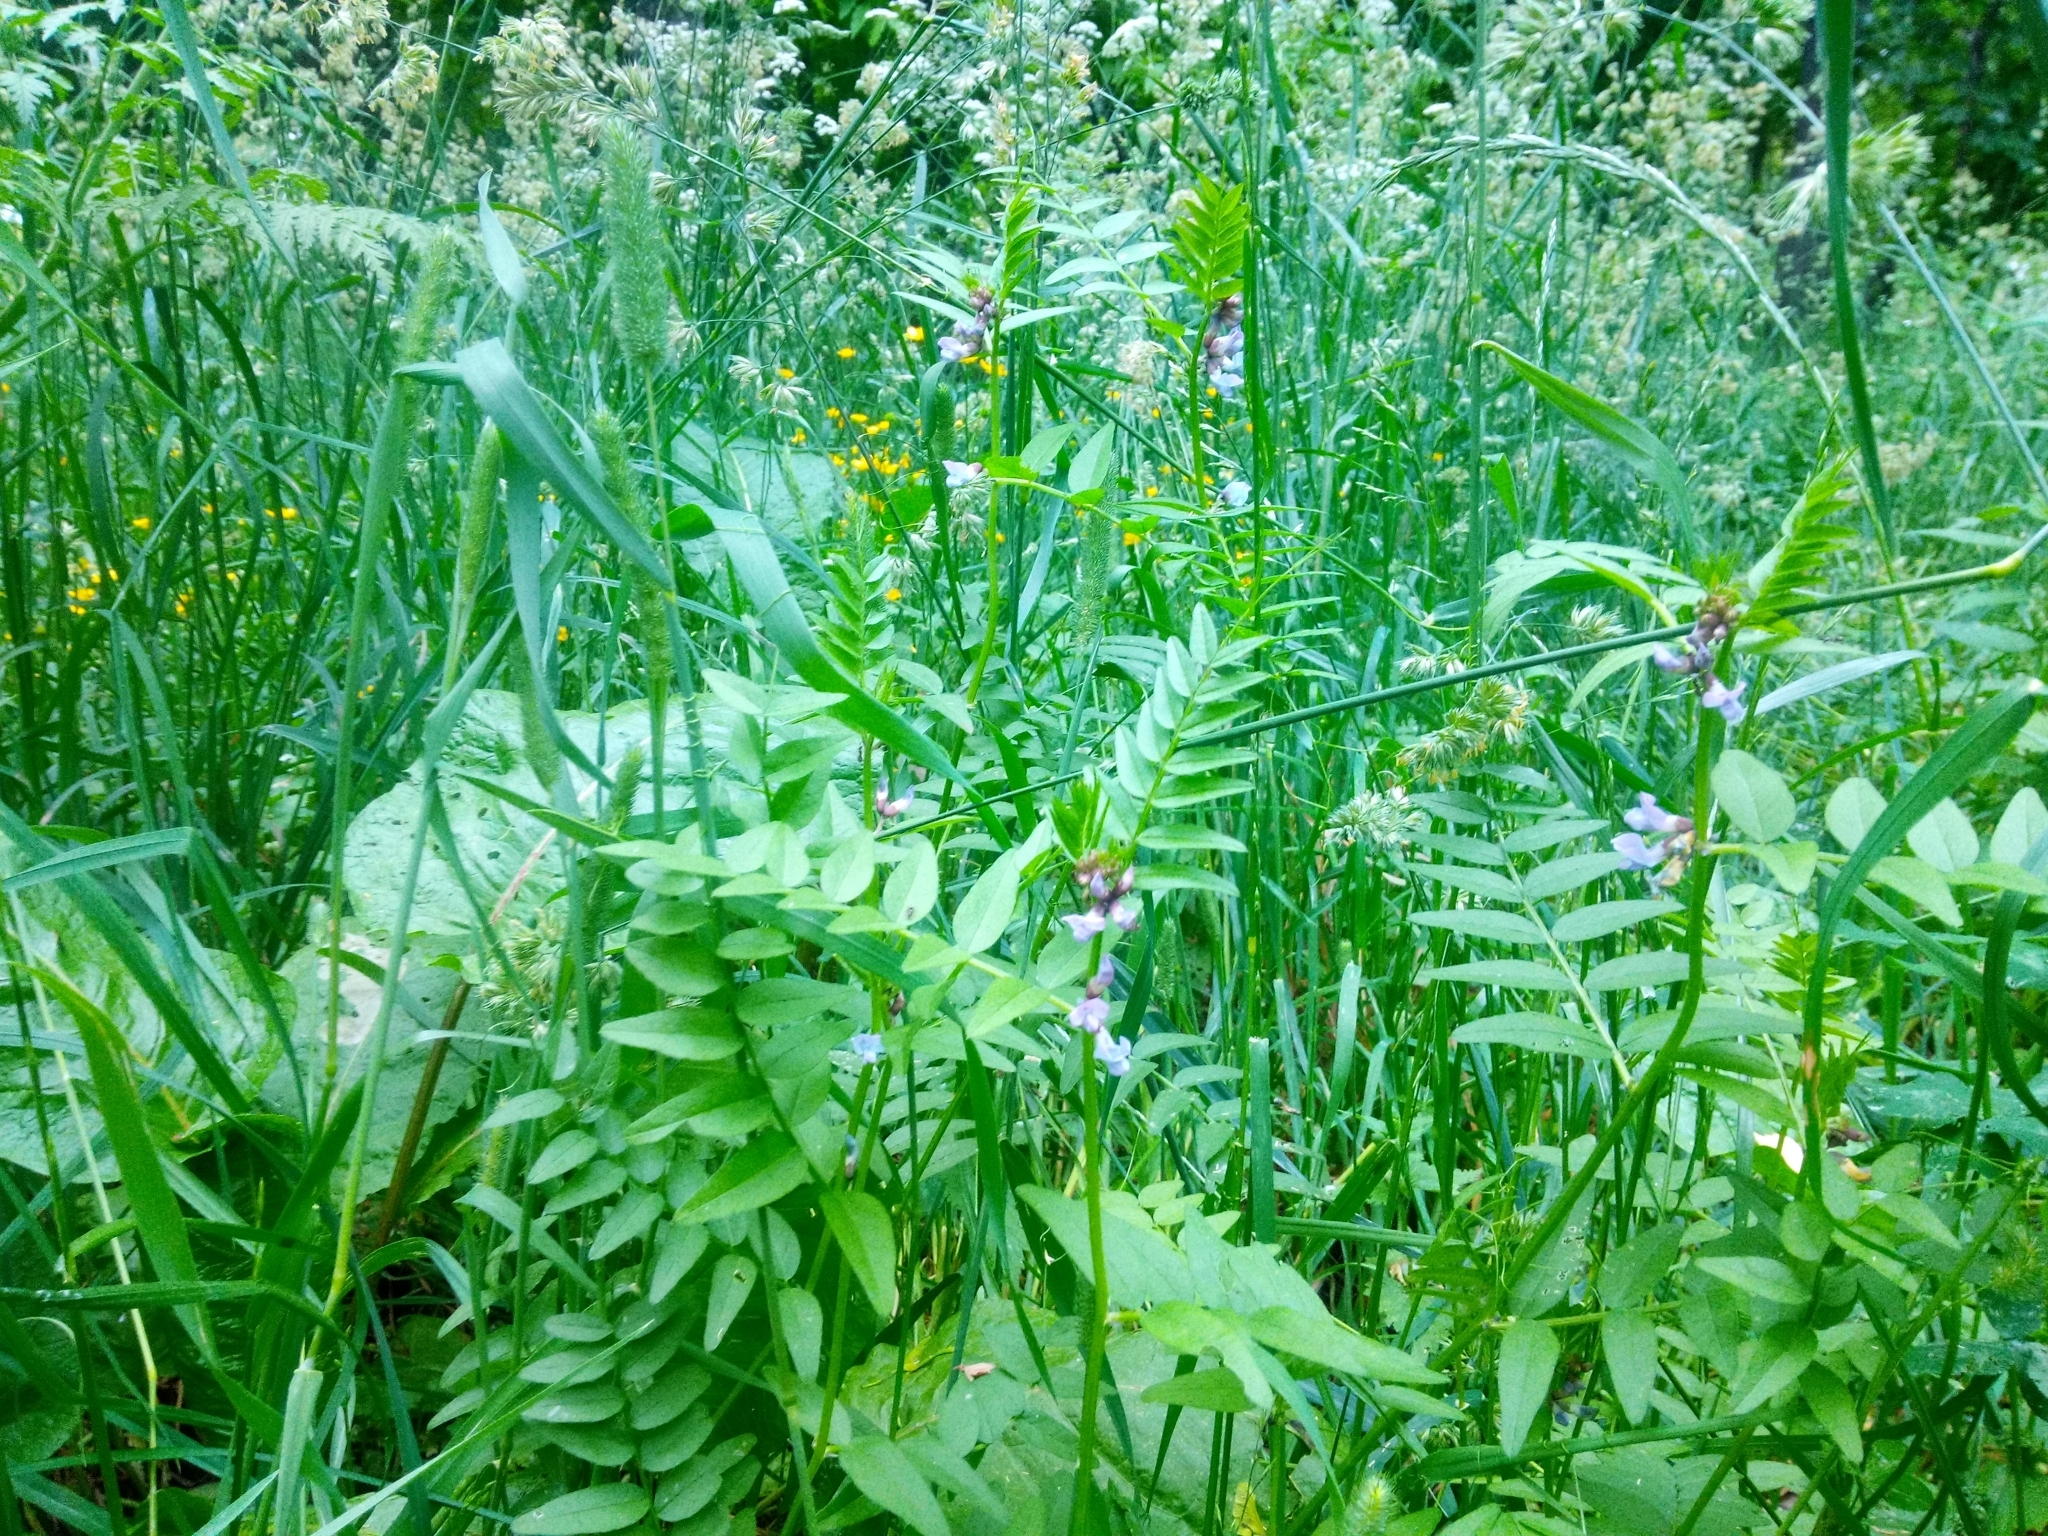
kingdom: Plantae
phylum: Tracheophyta
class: Magnoliopsida
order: Fabales
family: Fabaceae
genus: Vicia
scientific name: Vicia sepium
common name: Bush vetch
